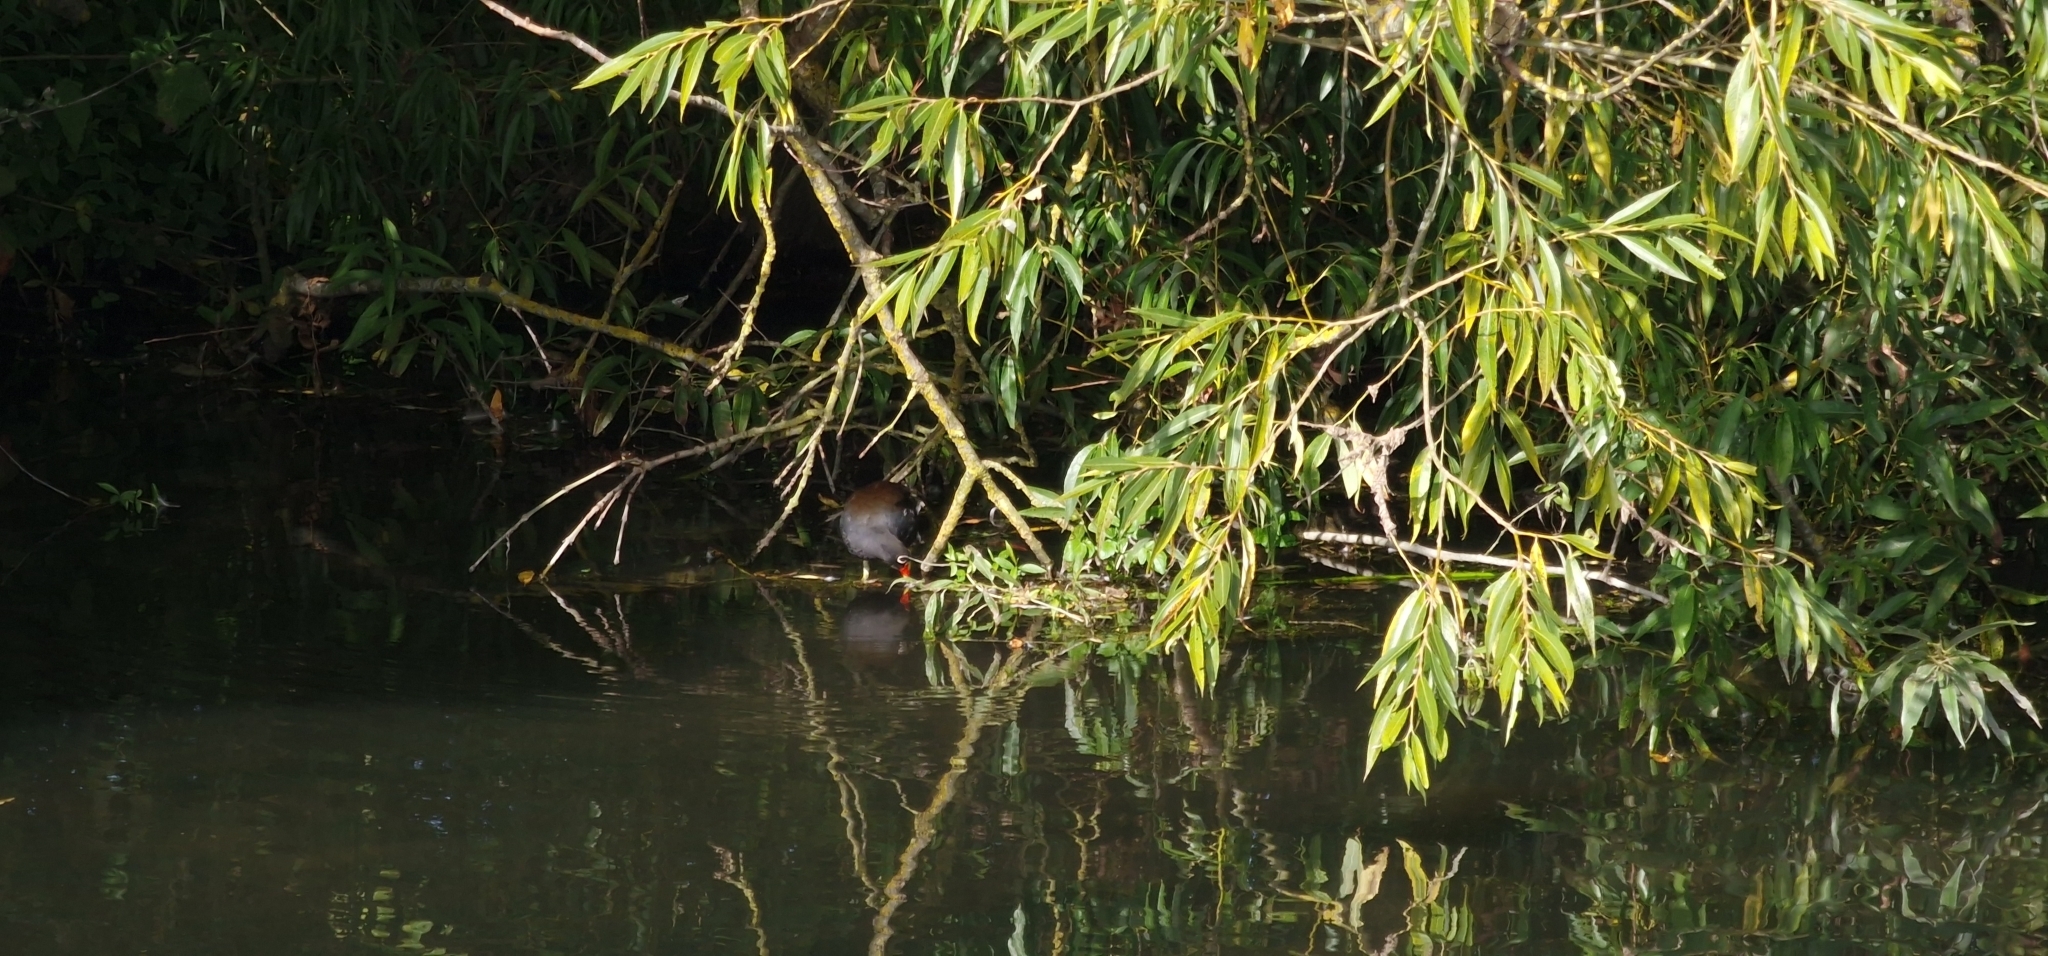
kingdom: Animalia
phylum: Chordata
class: Aves
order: Gruiformes
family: Rallidae
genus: Gallinula
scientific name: Gallinula chloropus
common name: Common moorhen
